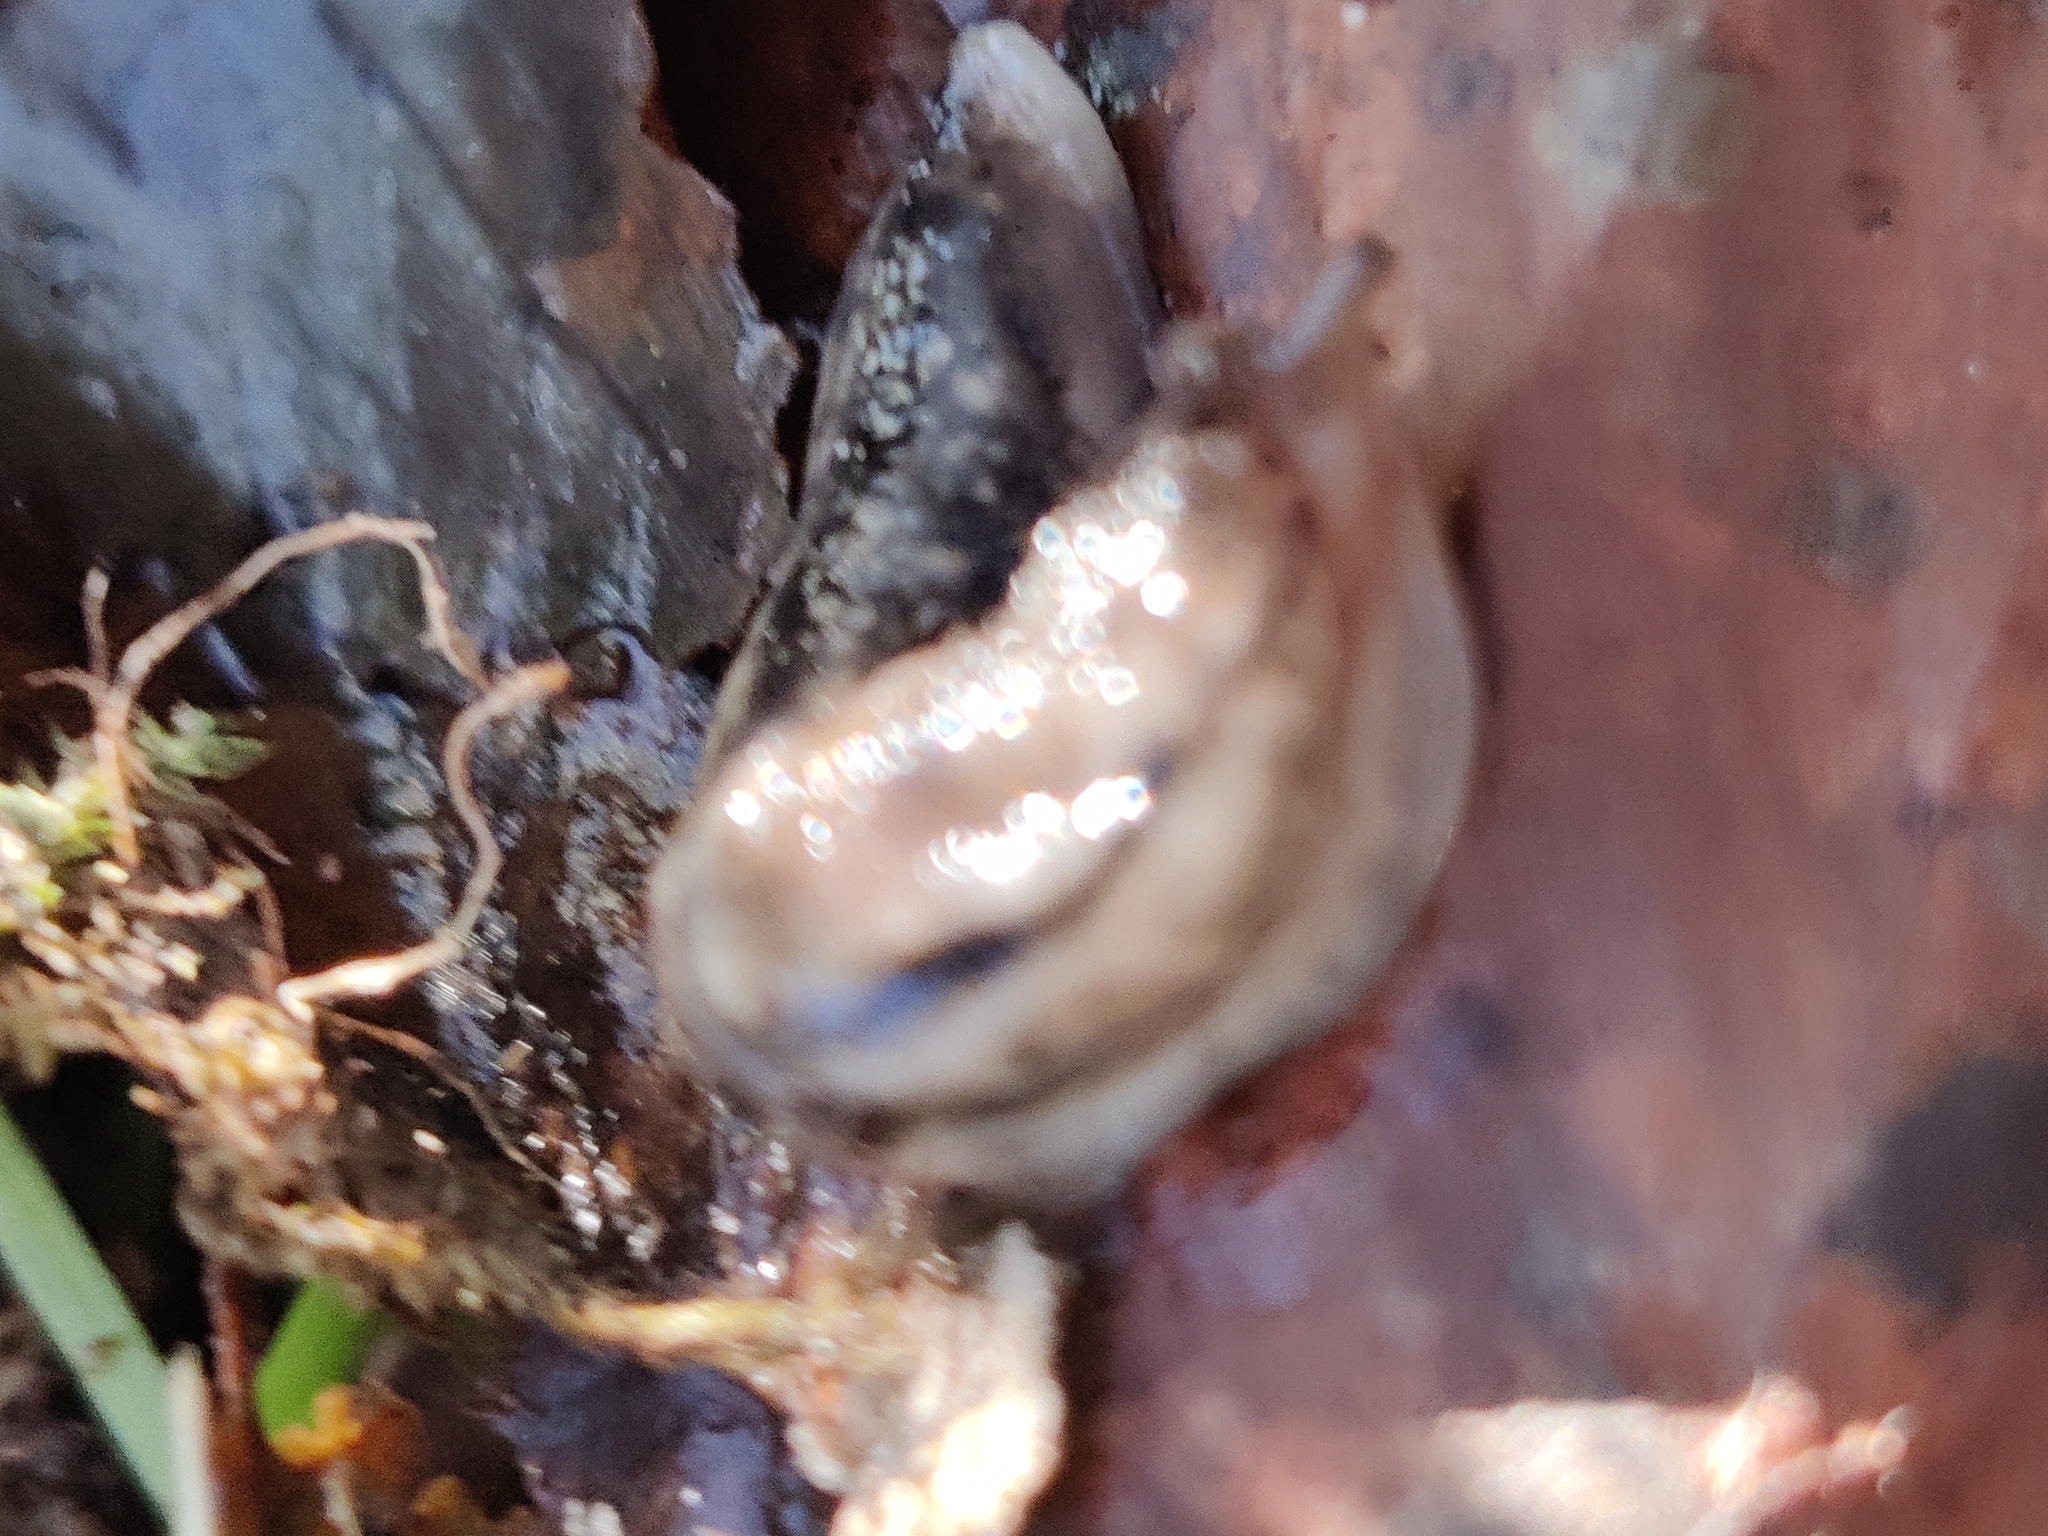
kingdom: Animalia
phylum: Mollusca
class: Gastropoda
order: Stylommatophora
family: Limacidae
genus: Lehmannia
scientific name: Lehmannia marginata
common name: Tree slug
